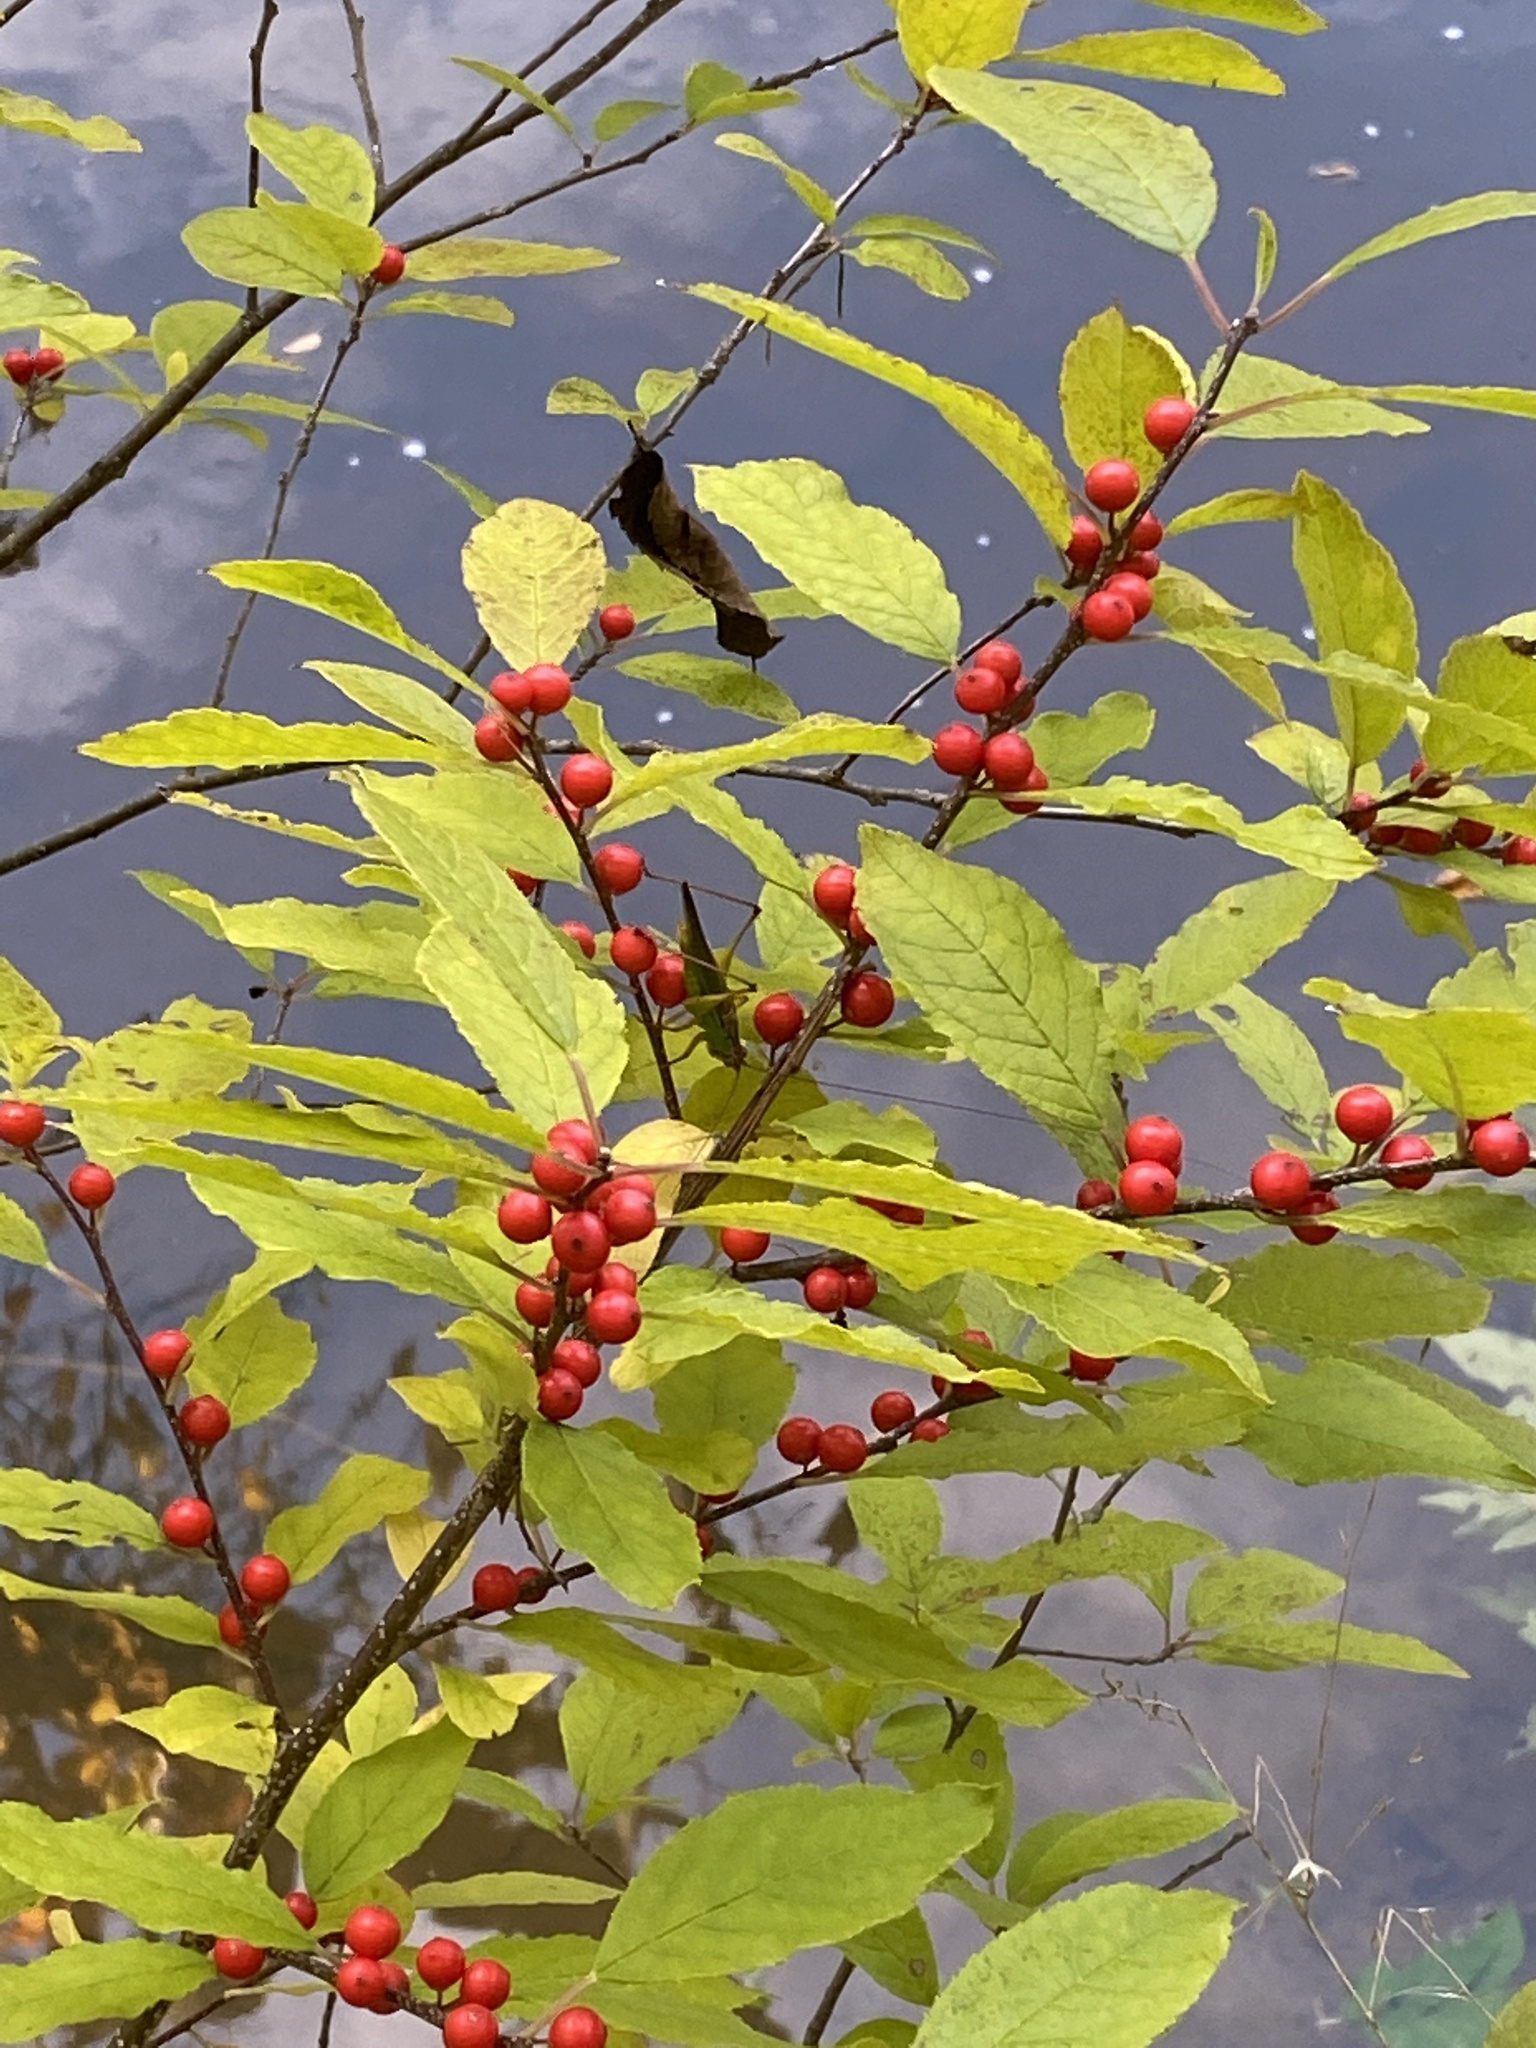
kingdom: Plantae
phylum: Tracheophyta
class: Magnoliopsida
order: Aquifoliales
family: Aquifoliaceae
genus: Ilex
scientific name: Ilex verticillata
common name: Virginia winterberry
